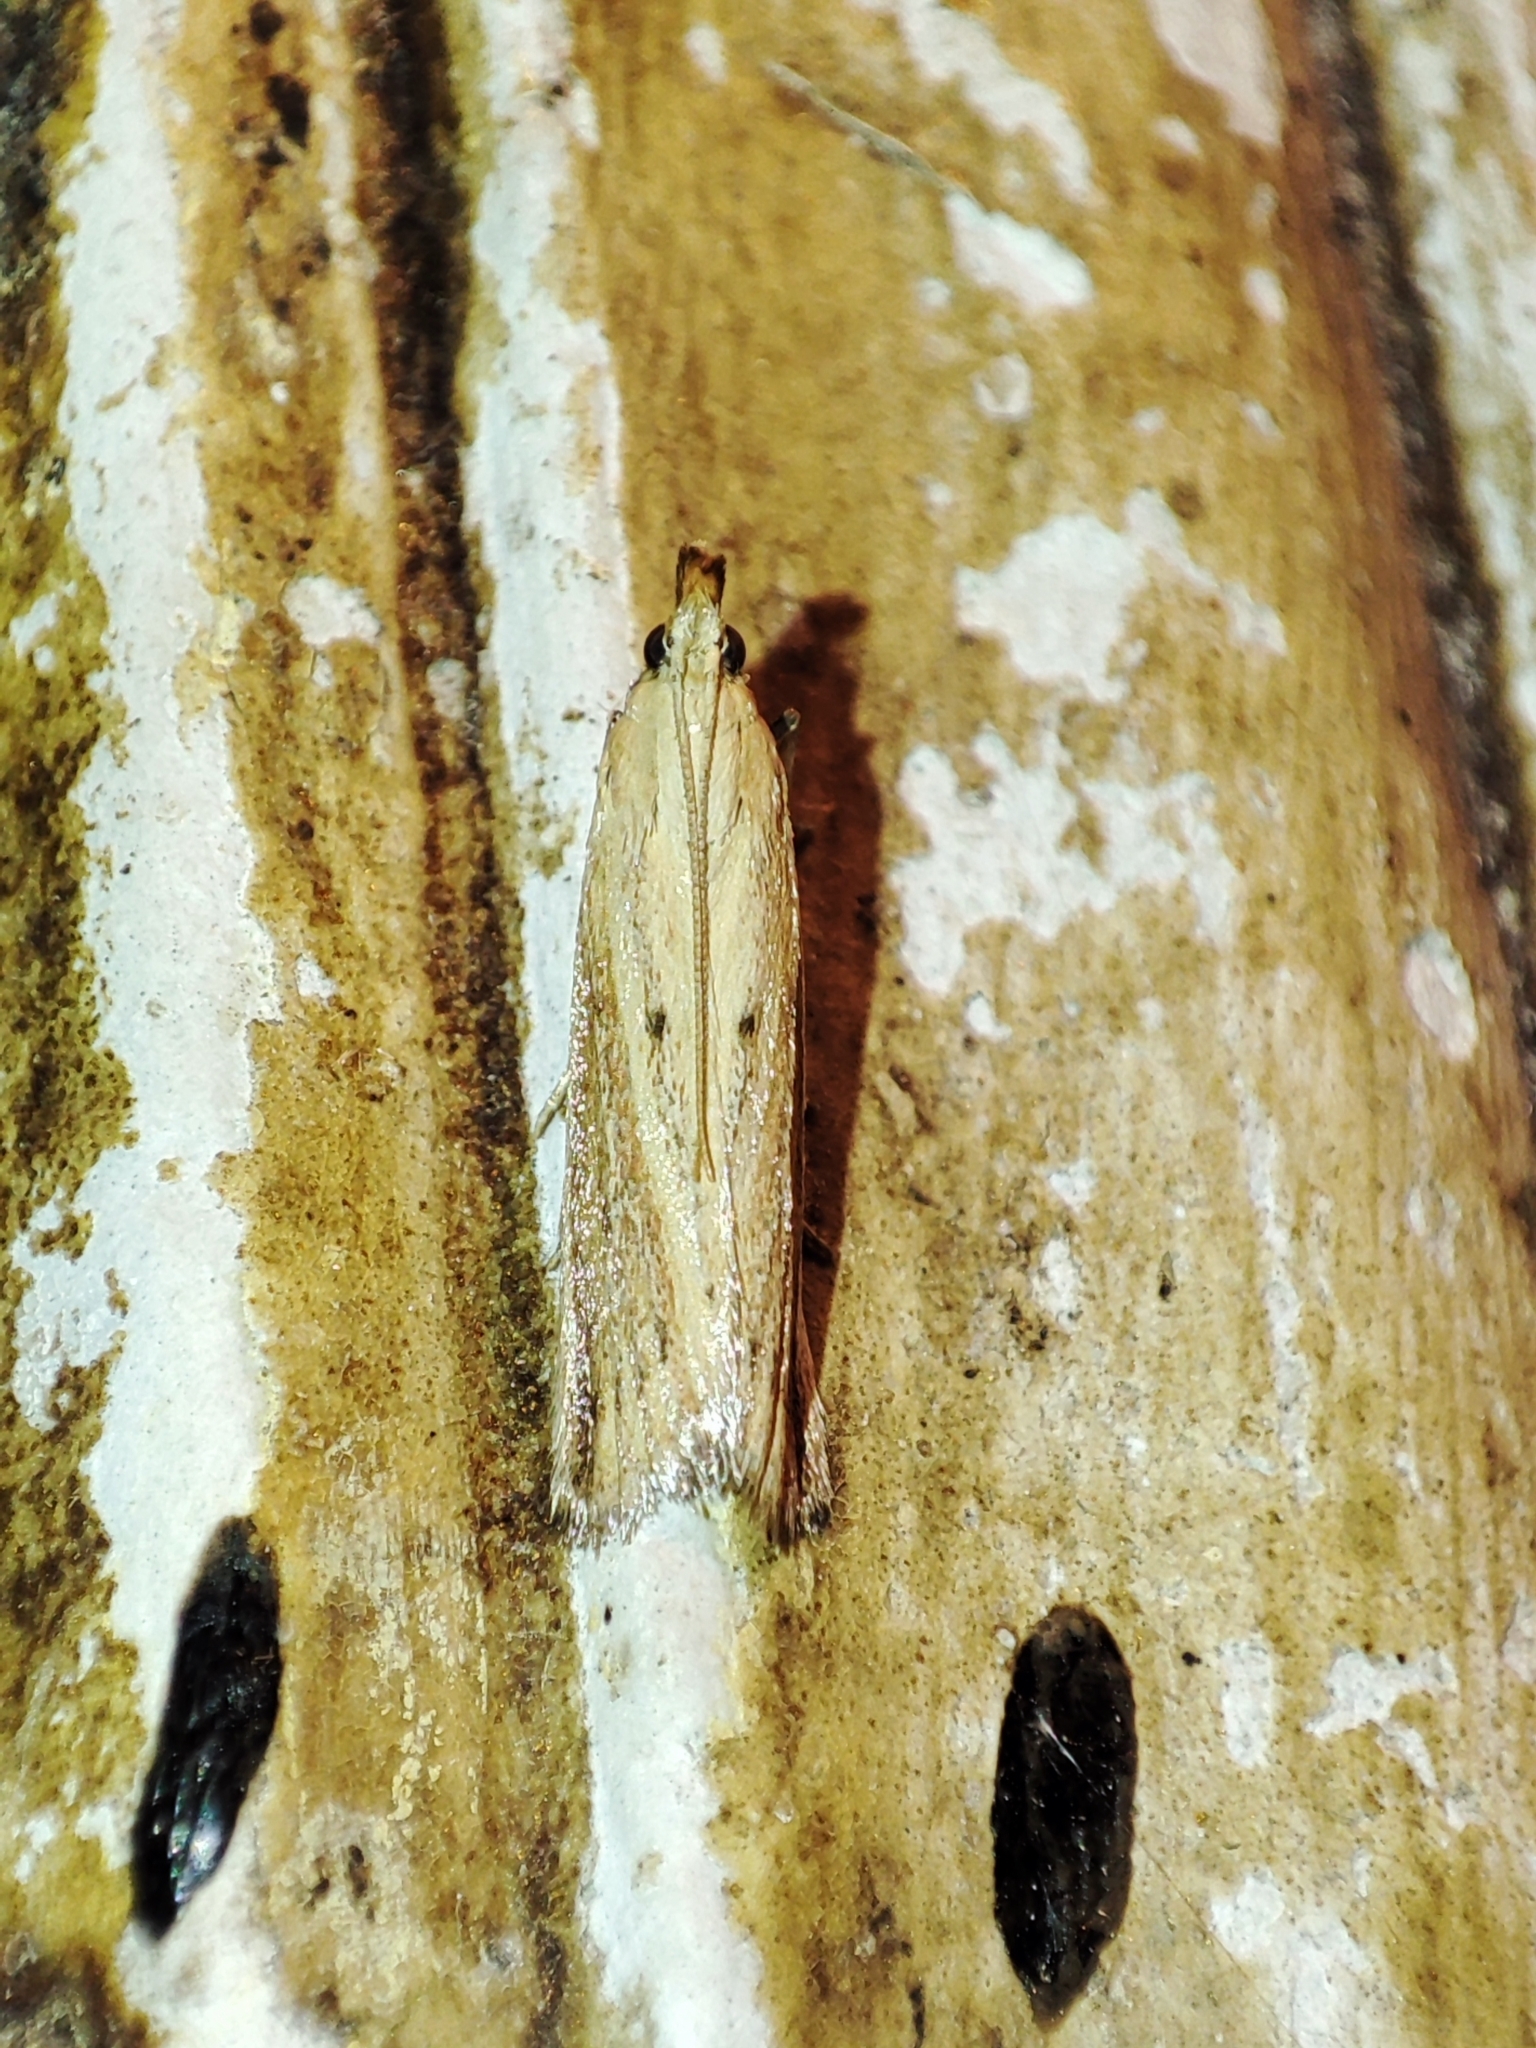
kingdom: Animalia
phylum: Arthropoda
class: Insecta
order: Lepidoptera
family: Pyralidae
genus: Hypsotropa
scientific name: Hypsotropa unipunctella
